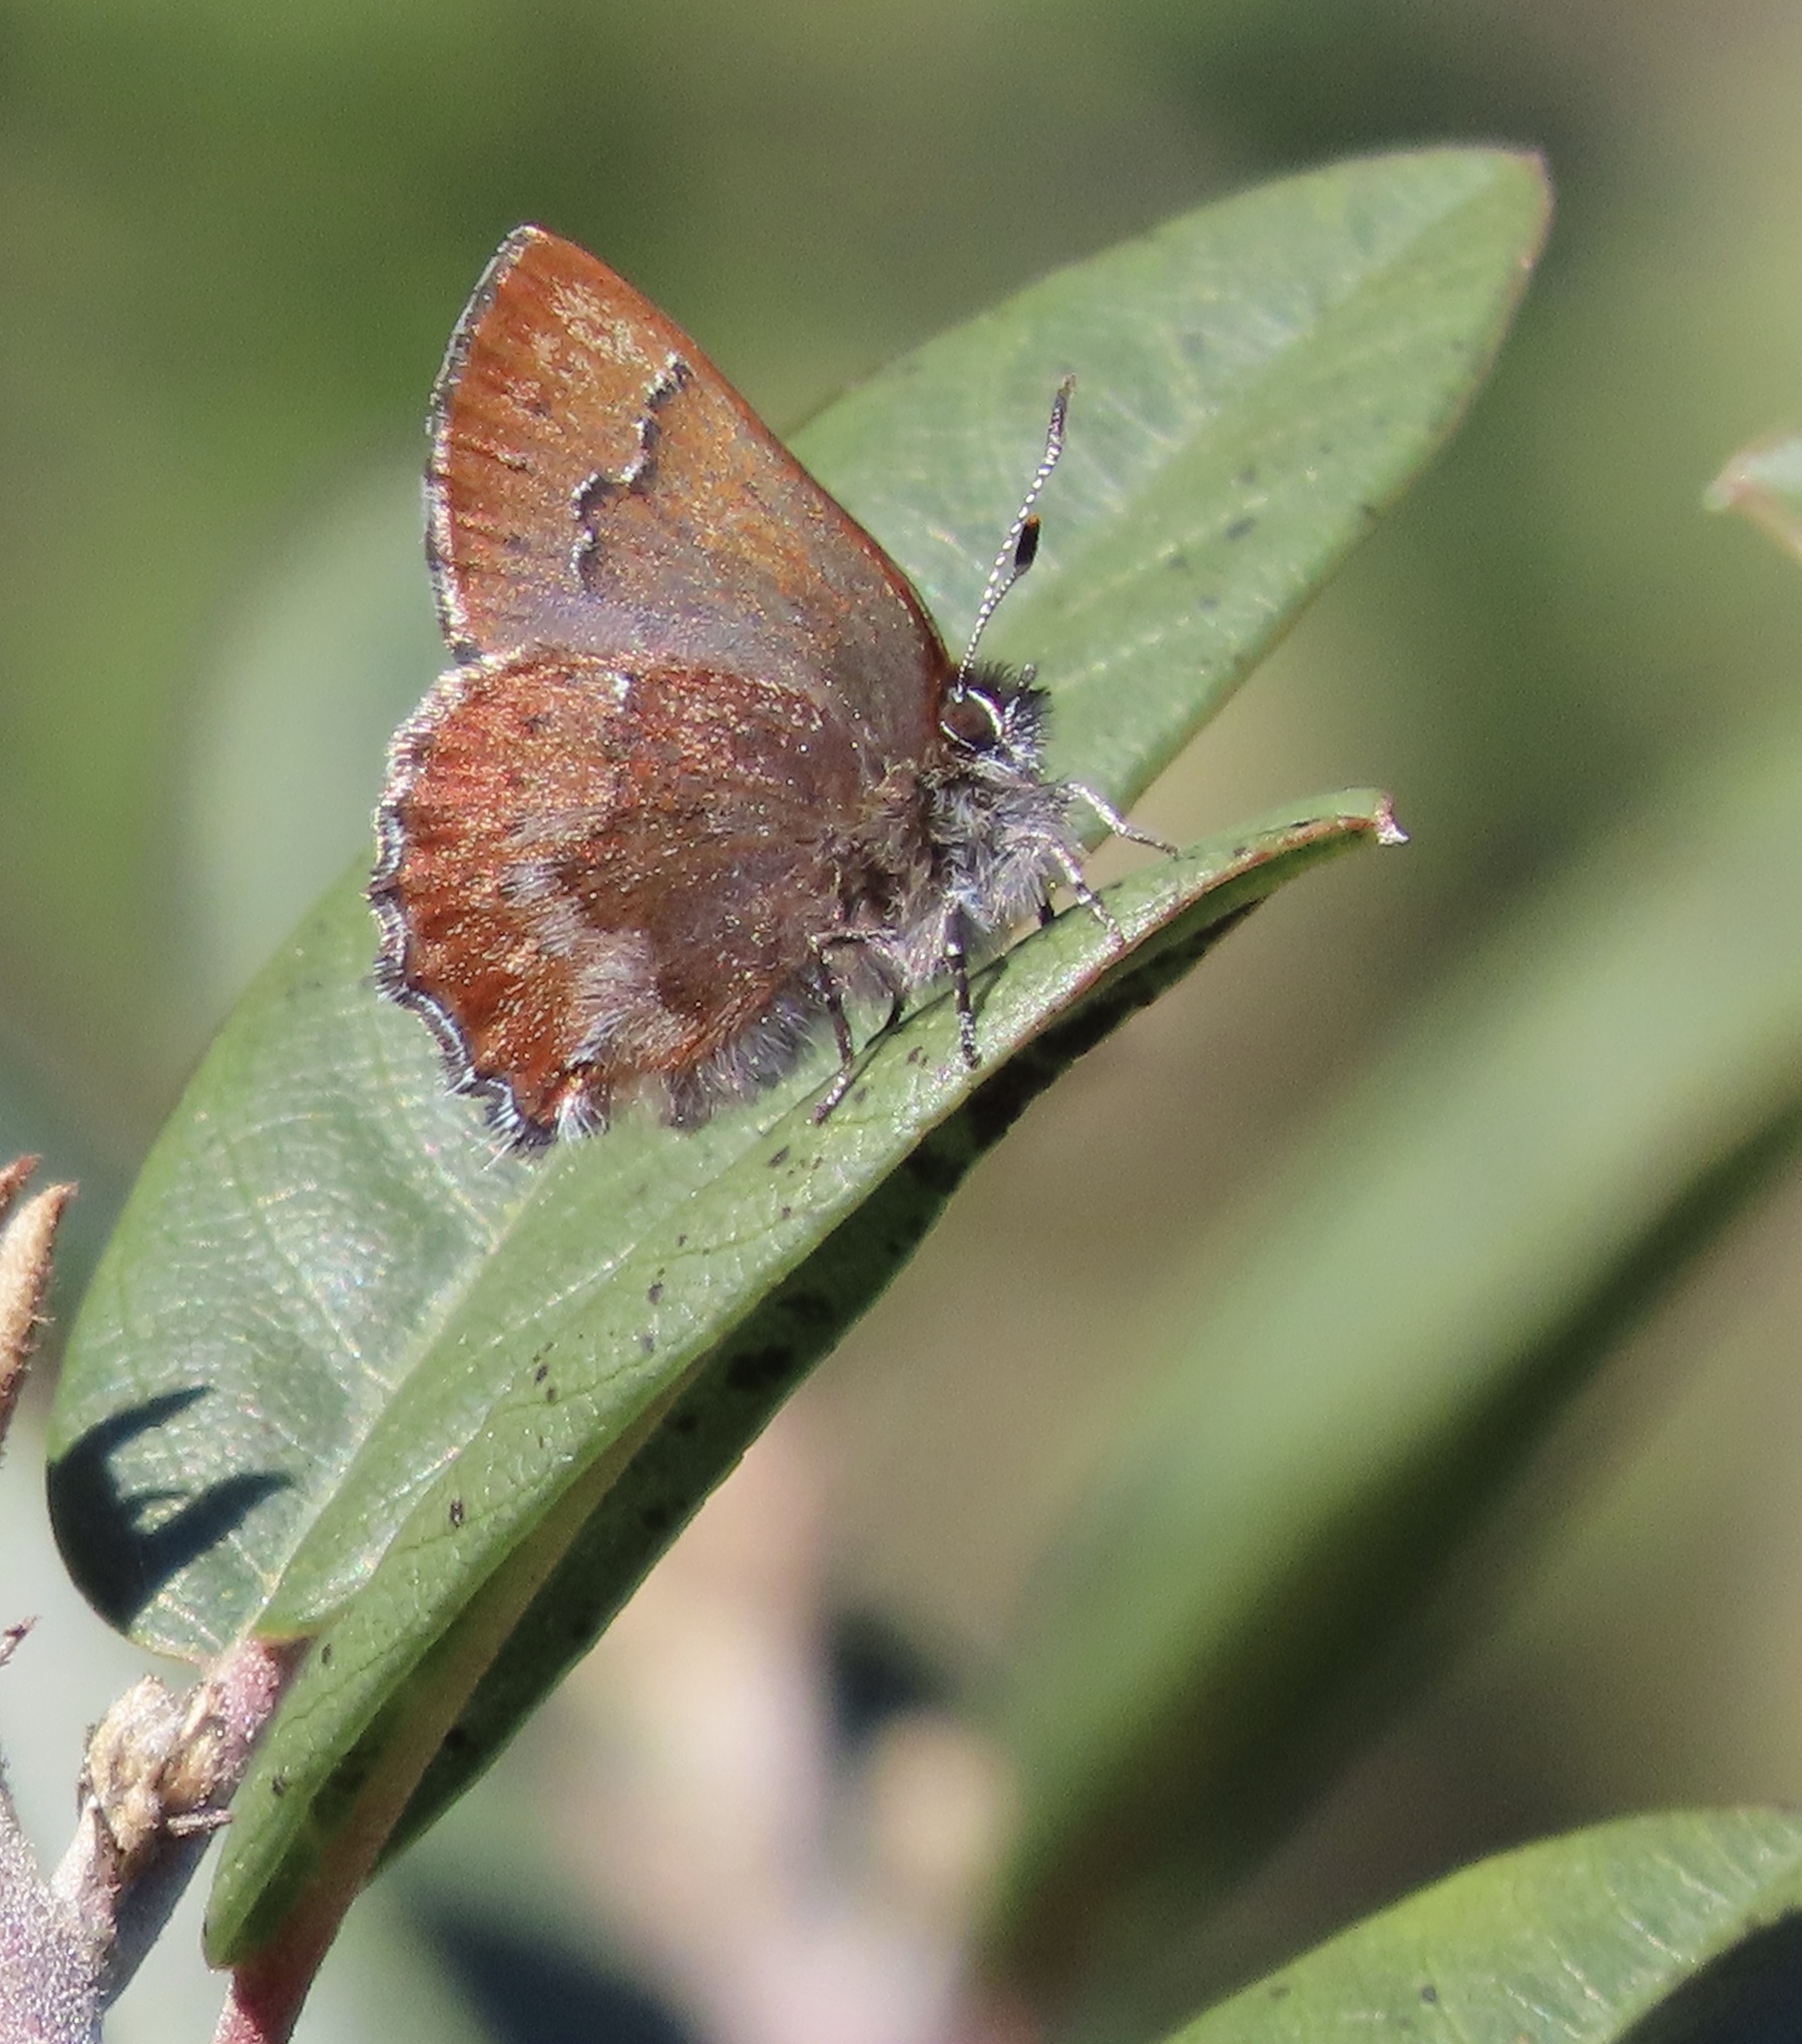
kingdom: Animalia
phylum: Arthropoda
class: Insecta
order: Lepidoptera
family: Lycaenidae
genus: Callophrys
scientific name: Callophrys mossii
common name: Moss' elfin
